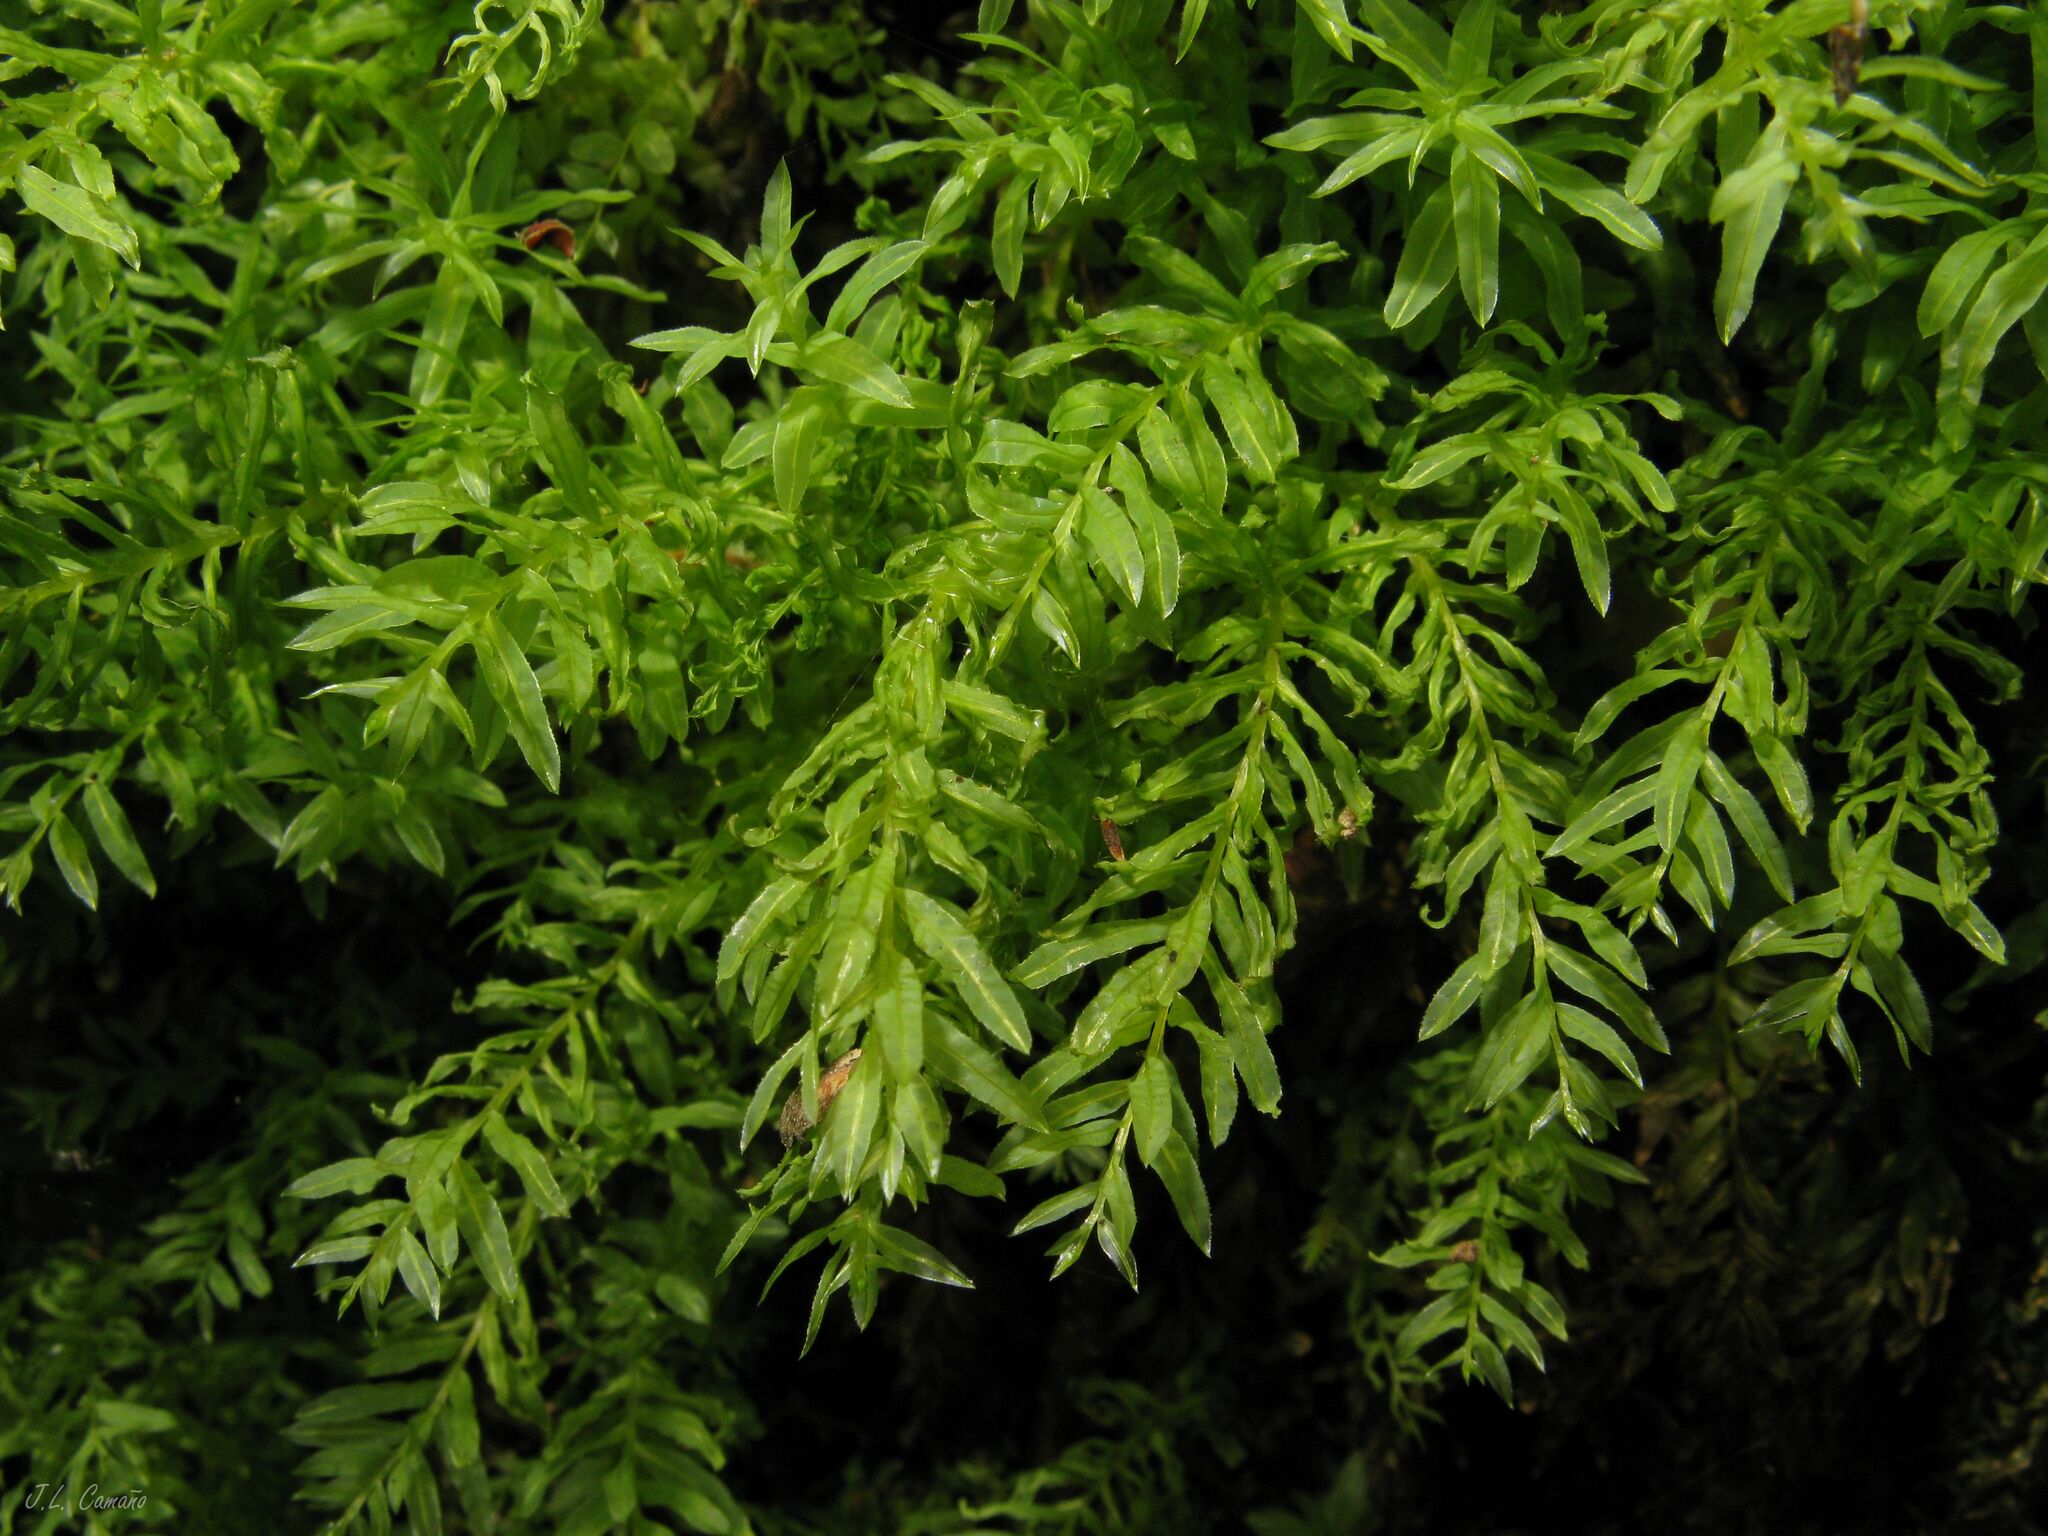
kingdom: Plantae
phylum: Bryophyta
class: Bryopsida
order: Bryales
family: Mniaceae
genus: Plagiomnium
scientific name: Plagiomnium undulatum
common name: Hart's-tongue thyme-moss
